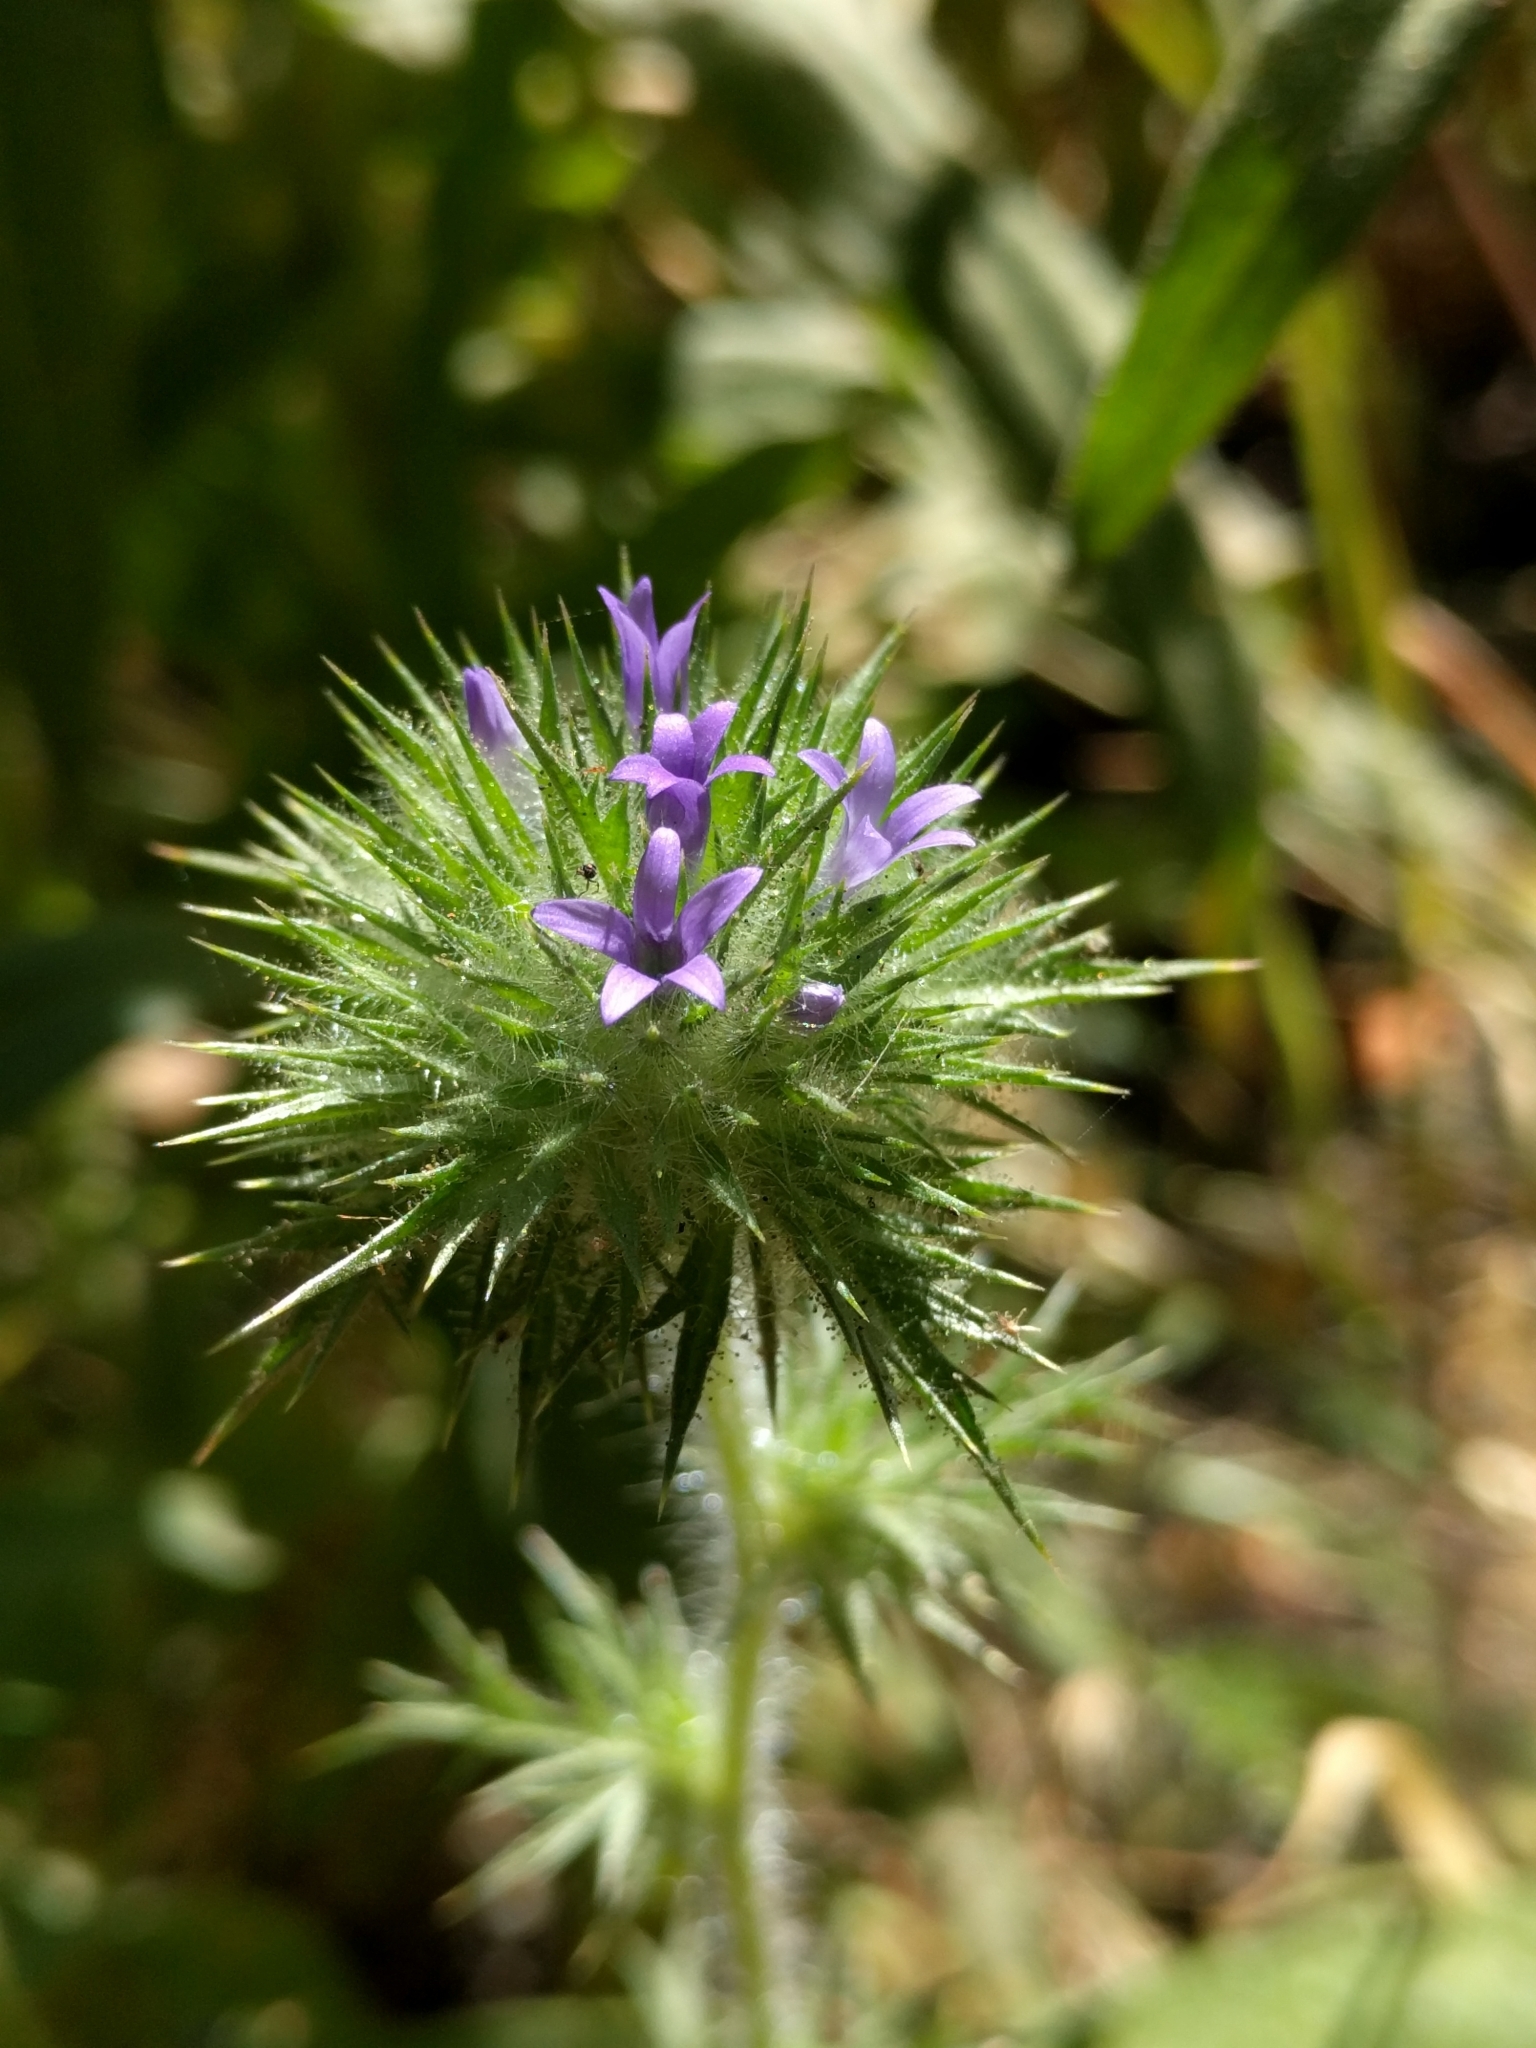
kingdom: Plantae
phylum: Tracheophyta
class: Magnoliopsida
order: Ericales
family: Polemoniaceae
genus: Navarretia
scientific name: Navarretia squarrosa
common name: Skunkweed
